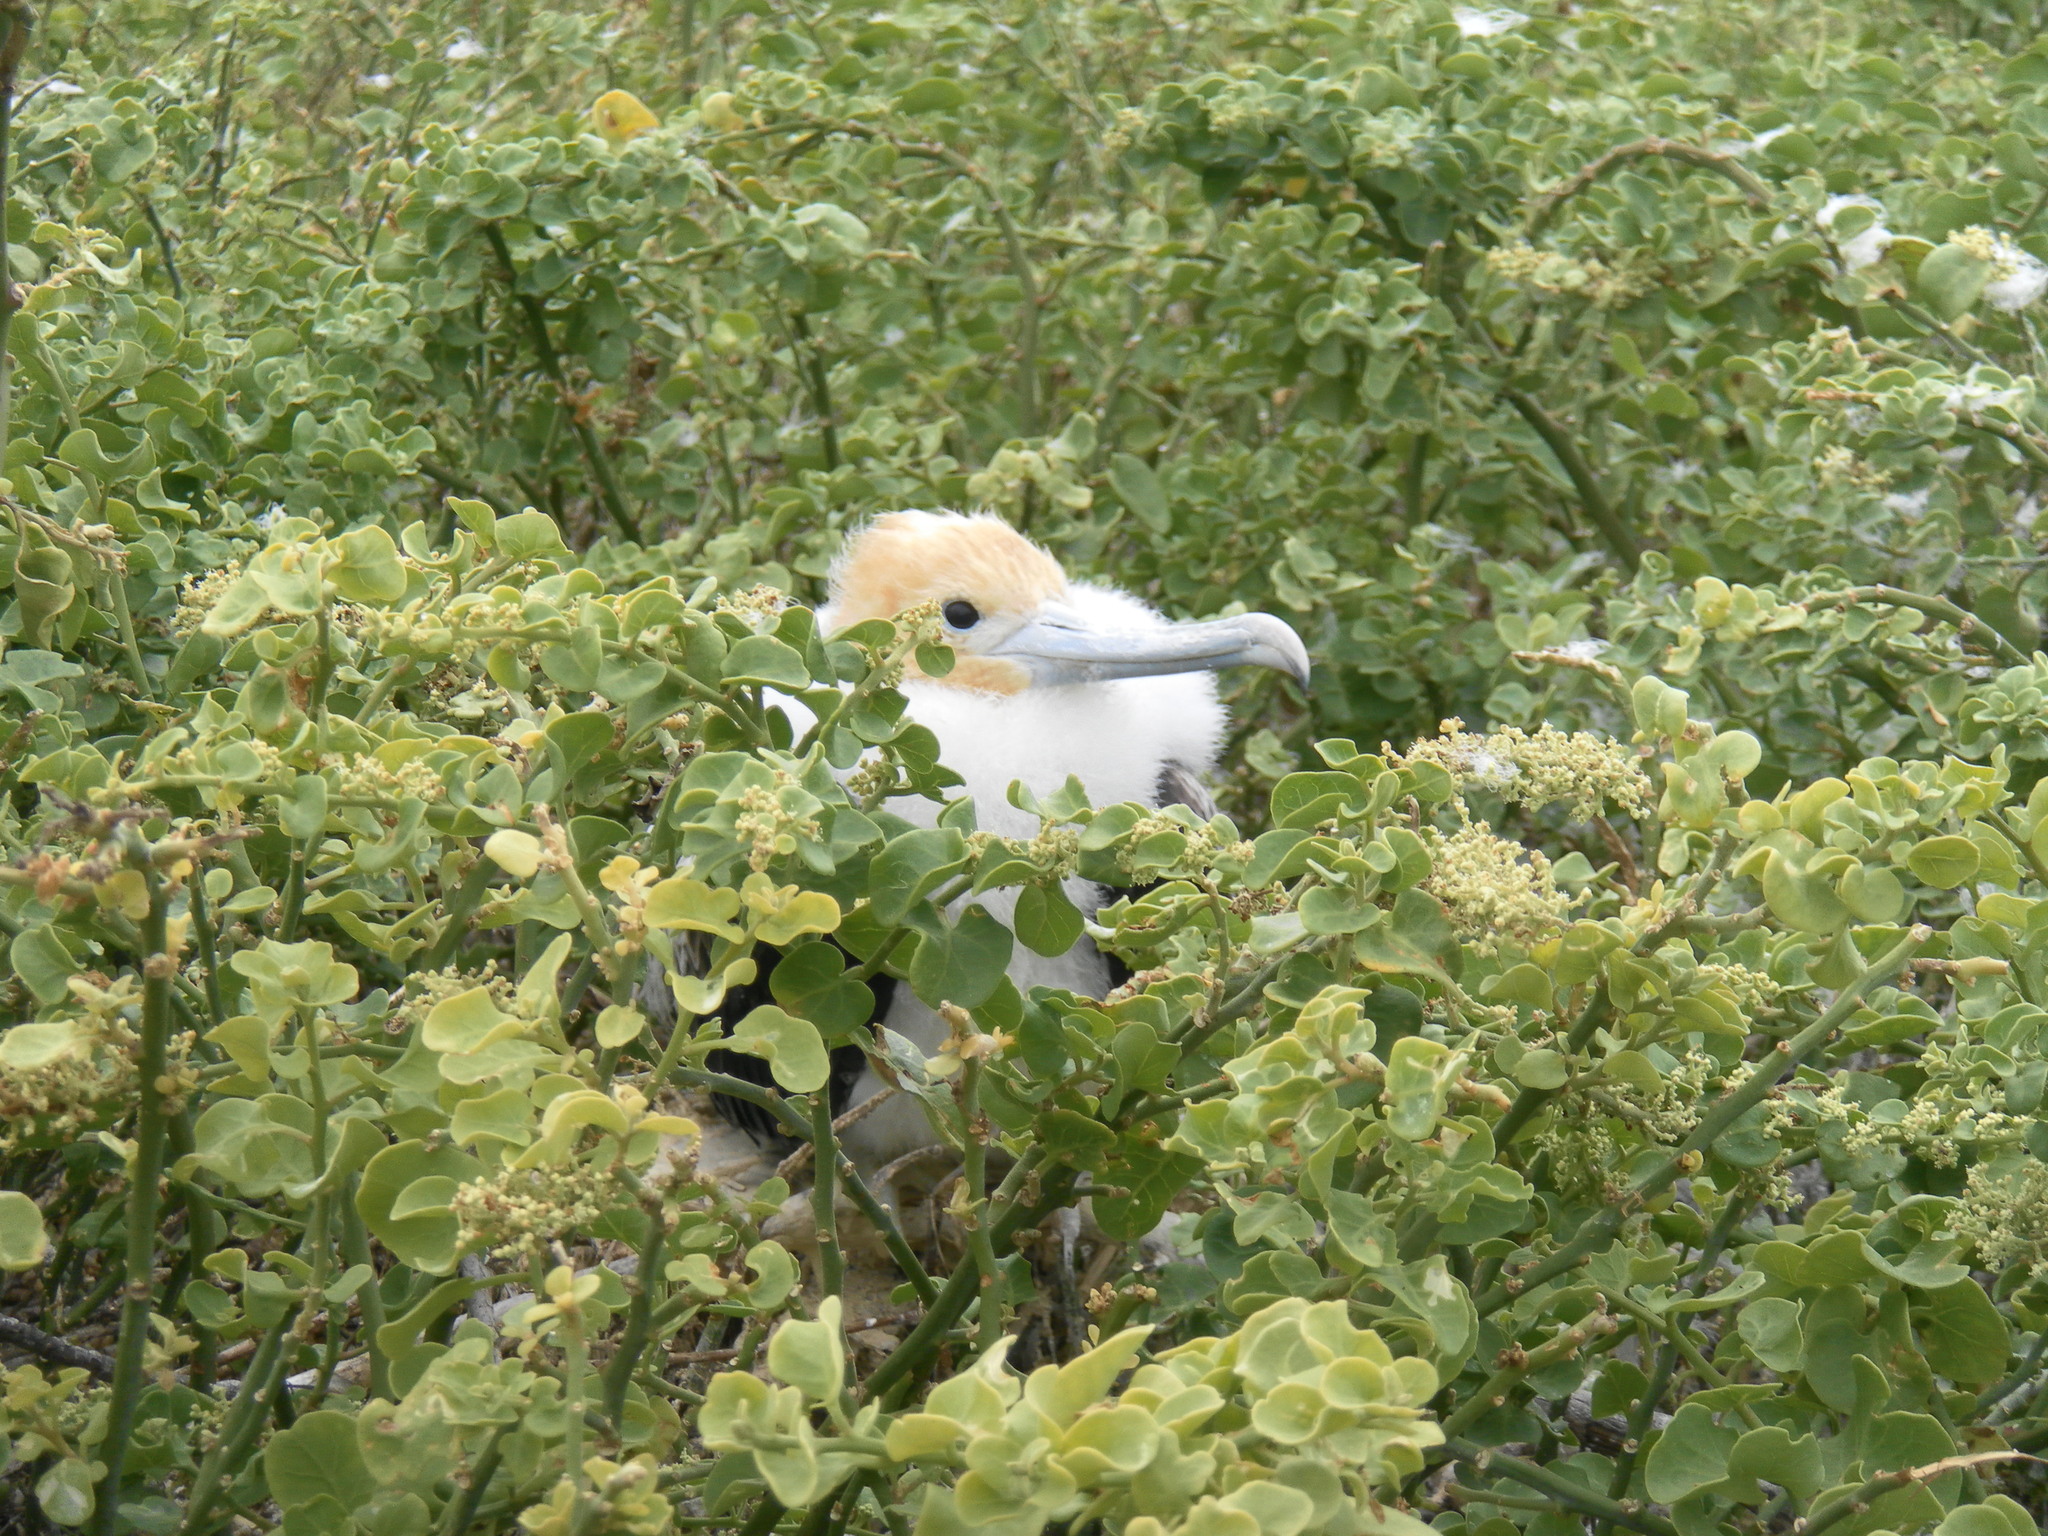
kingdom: Animalia
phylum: Chordata
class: Aves
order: Suliformes
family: Fregatidae
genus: Fregata
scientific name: Fregata minor
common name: Great frigatebird
